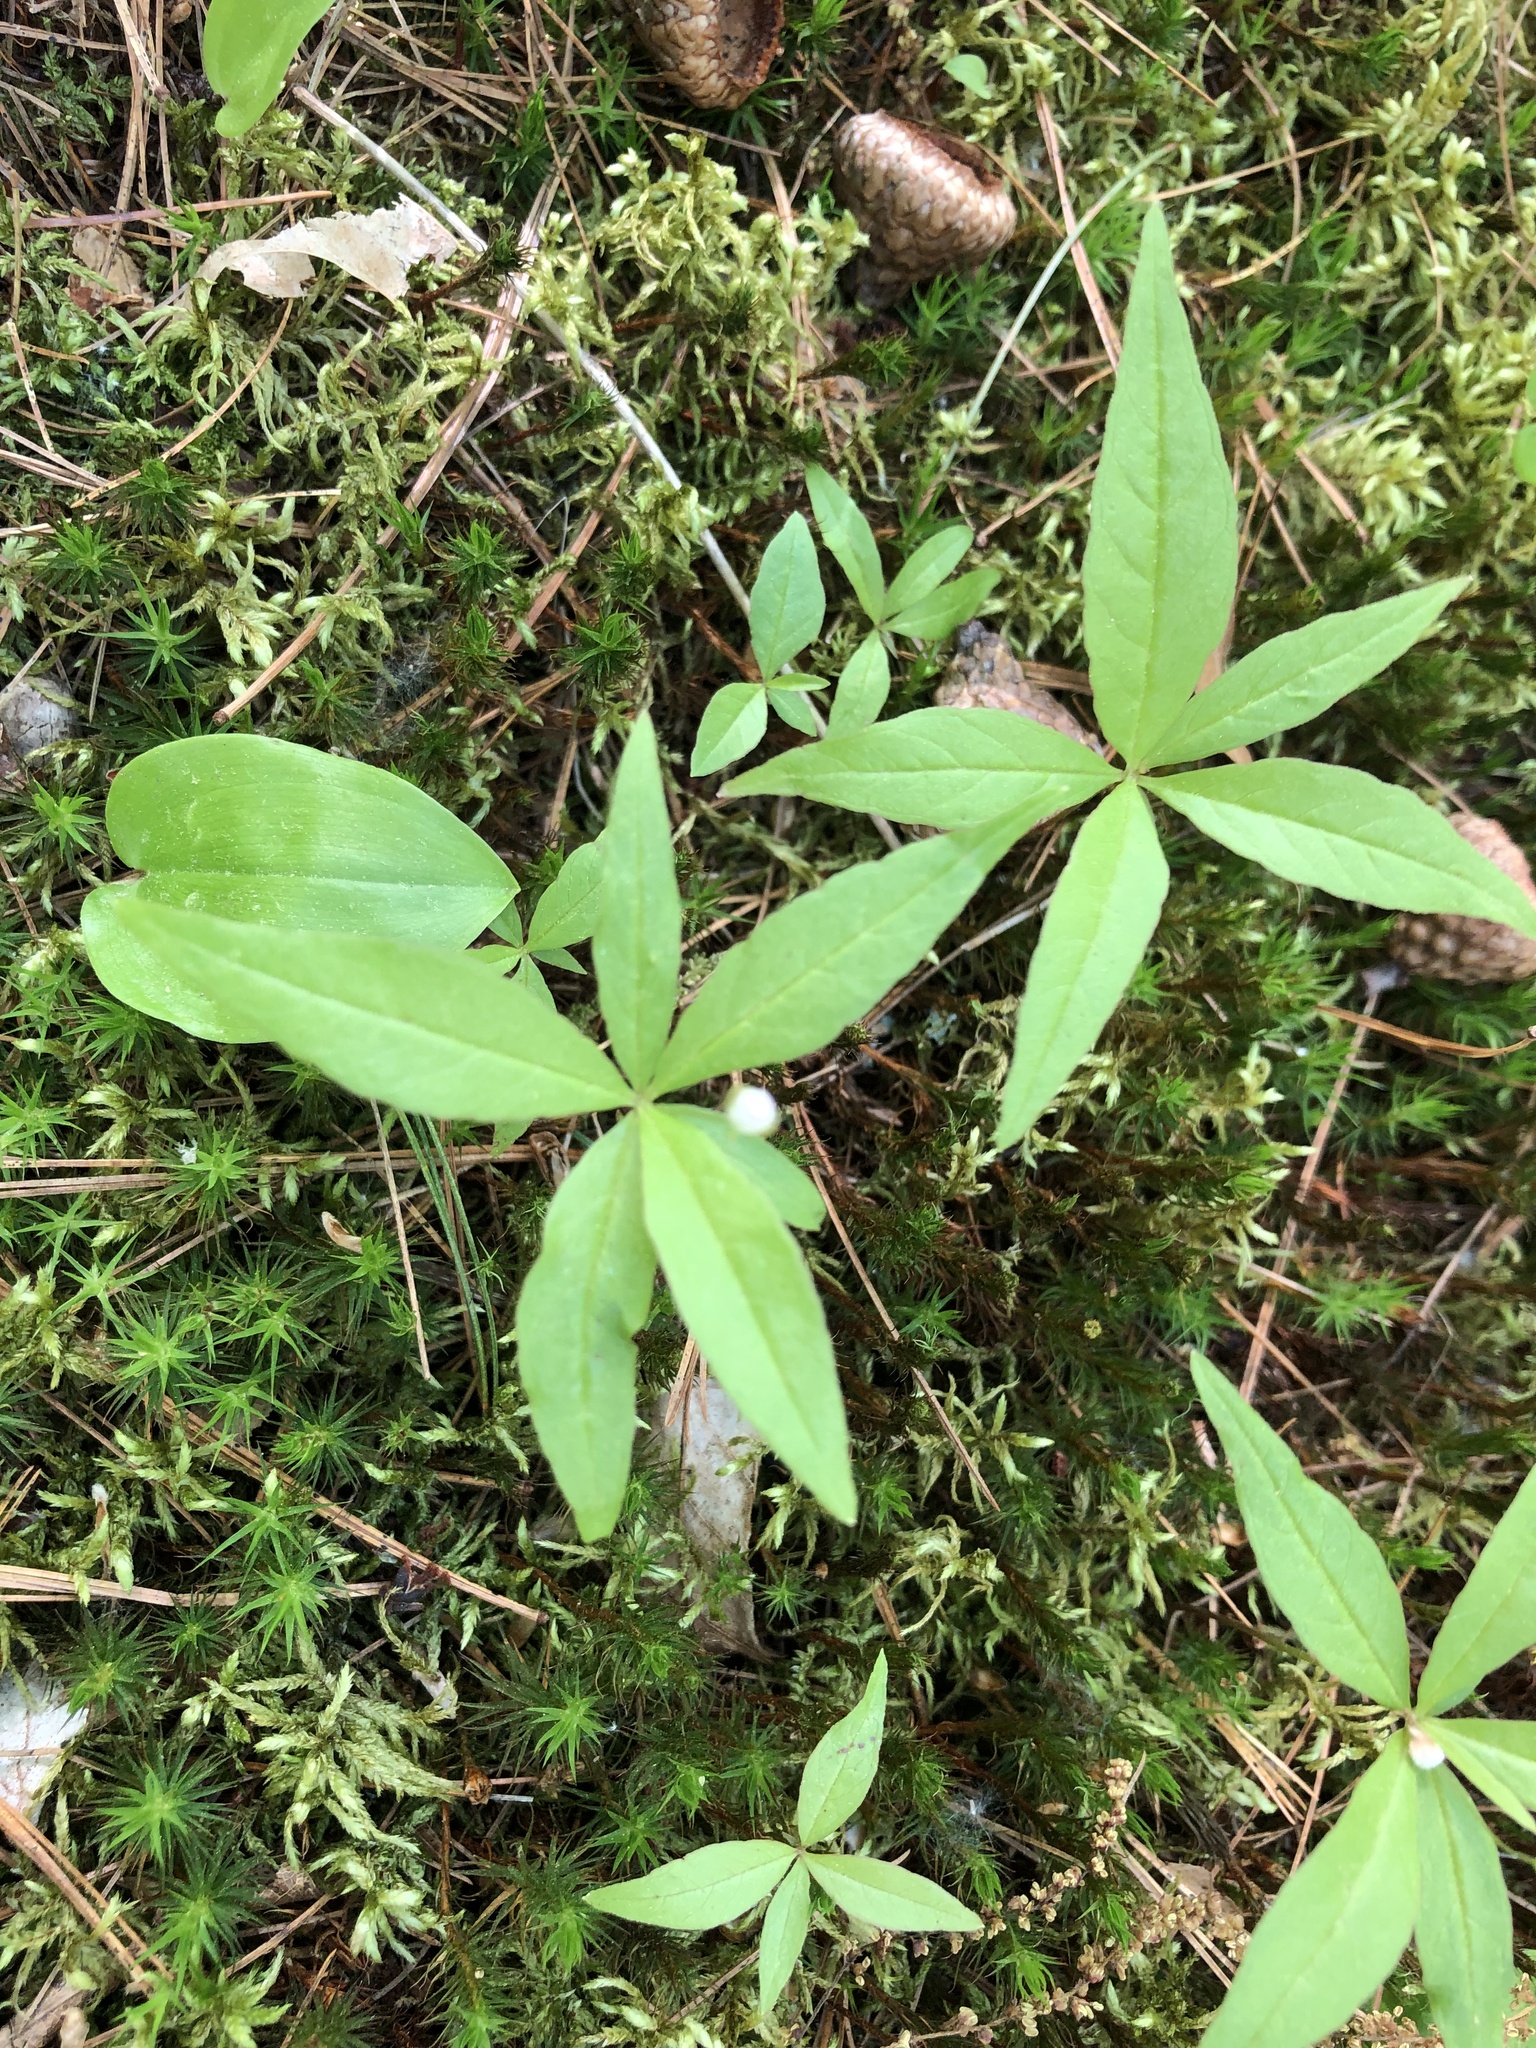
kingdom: Plantae
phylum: Tracheophyta
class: Magnoliopsida
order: Ericales
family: Primulaceae
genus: Lysimachia
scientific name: Lysimachia borealis
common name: American starflower
